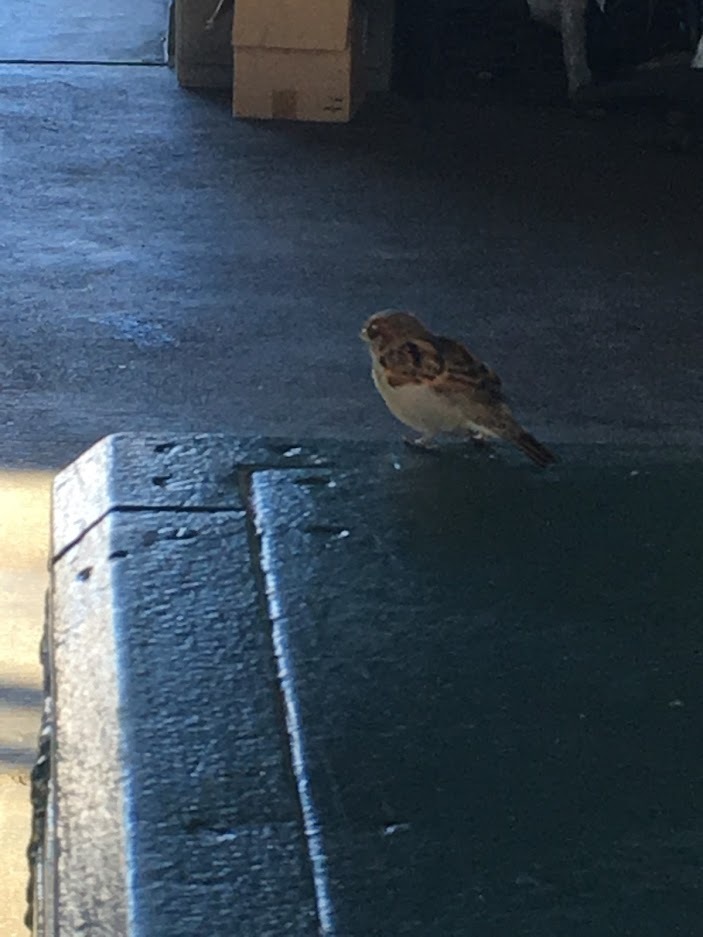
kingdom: Animalia
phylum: Chordata
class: Aves
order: Passeriformes
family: Passeridae
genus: Passer
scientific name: Passer domesticus
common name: House sparrow
